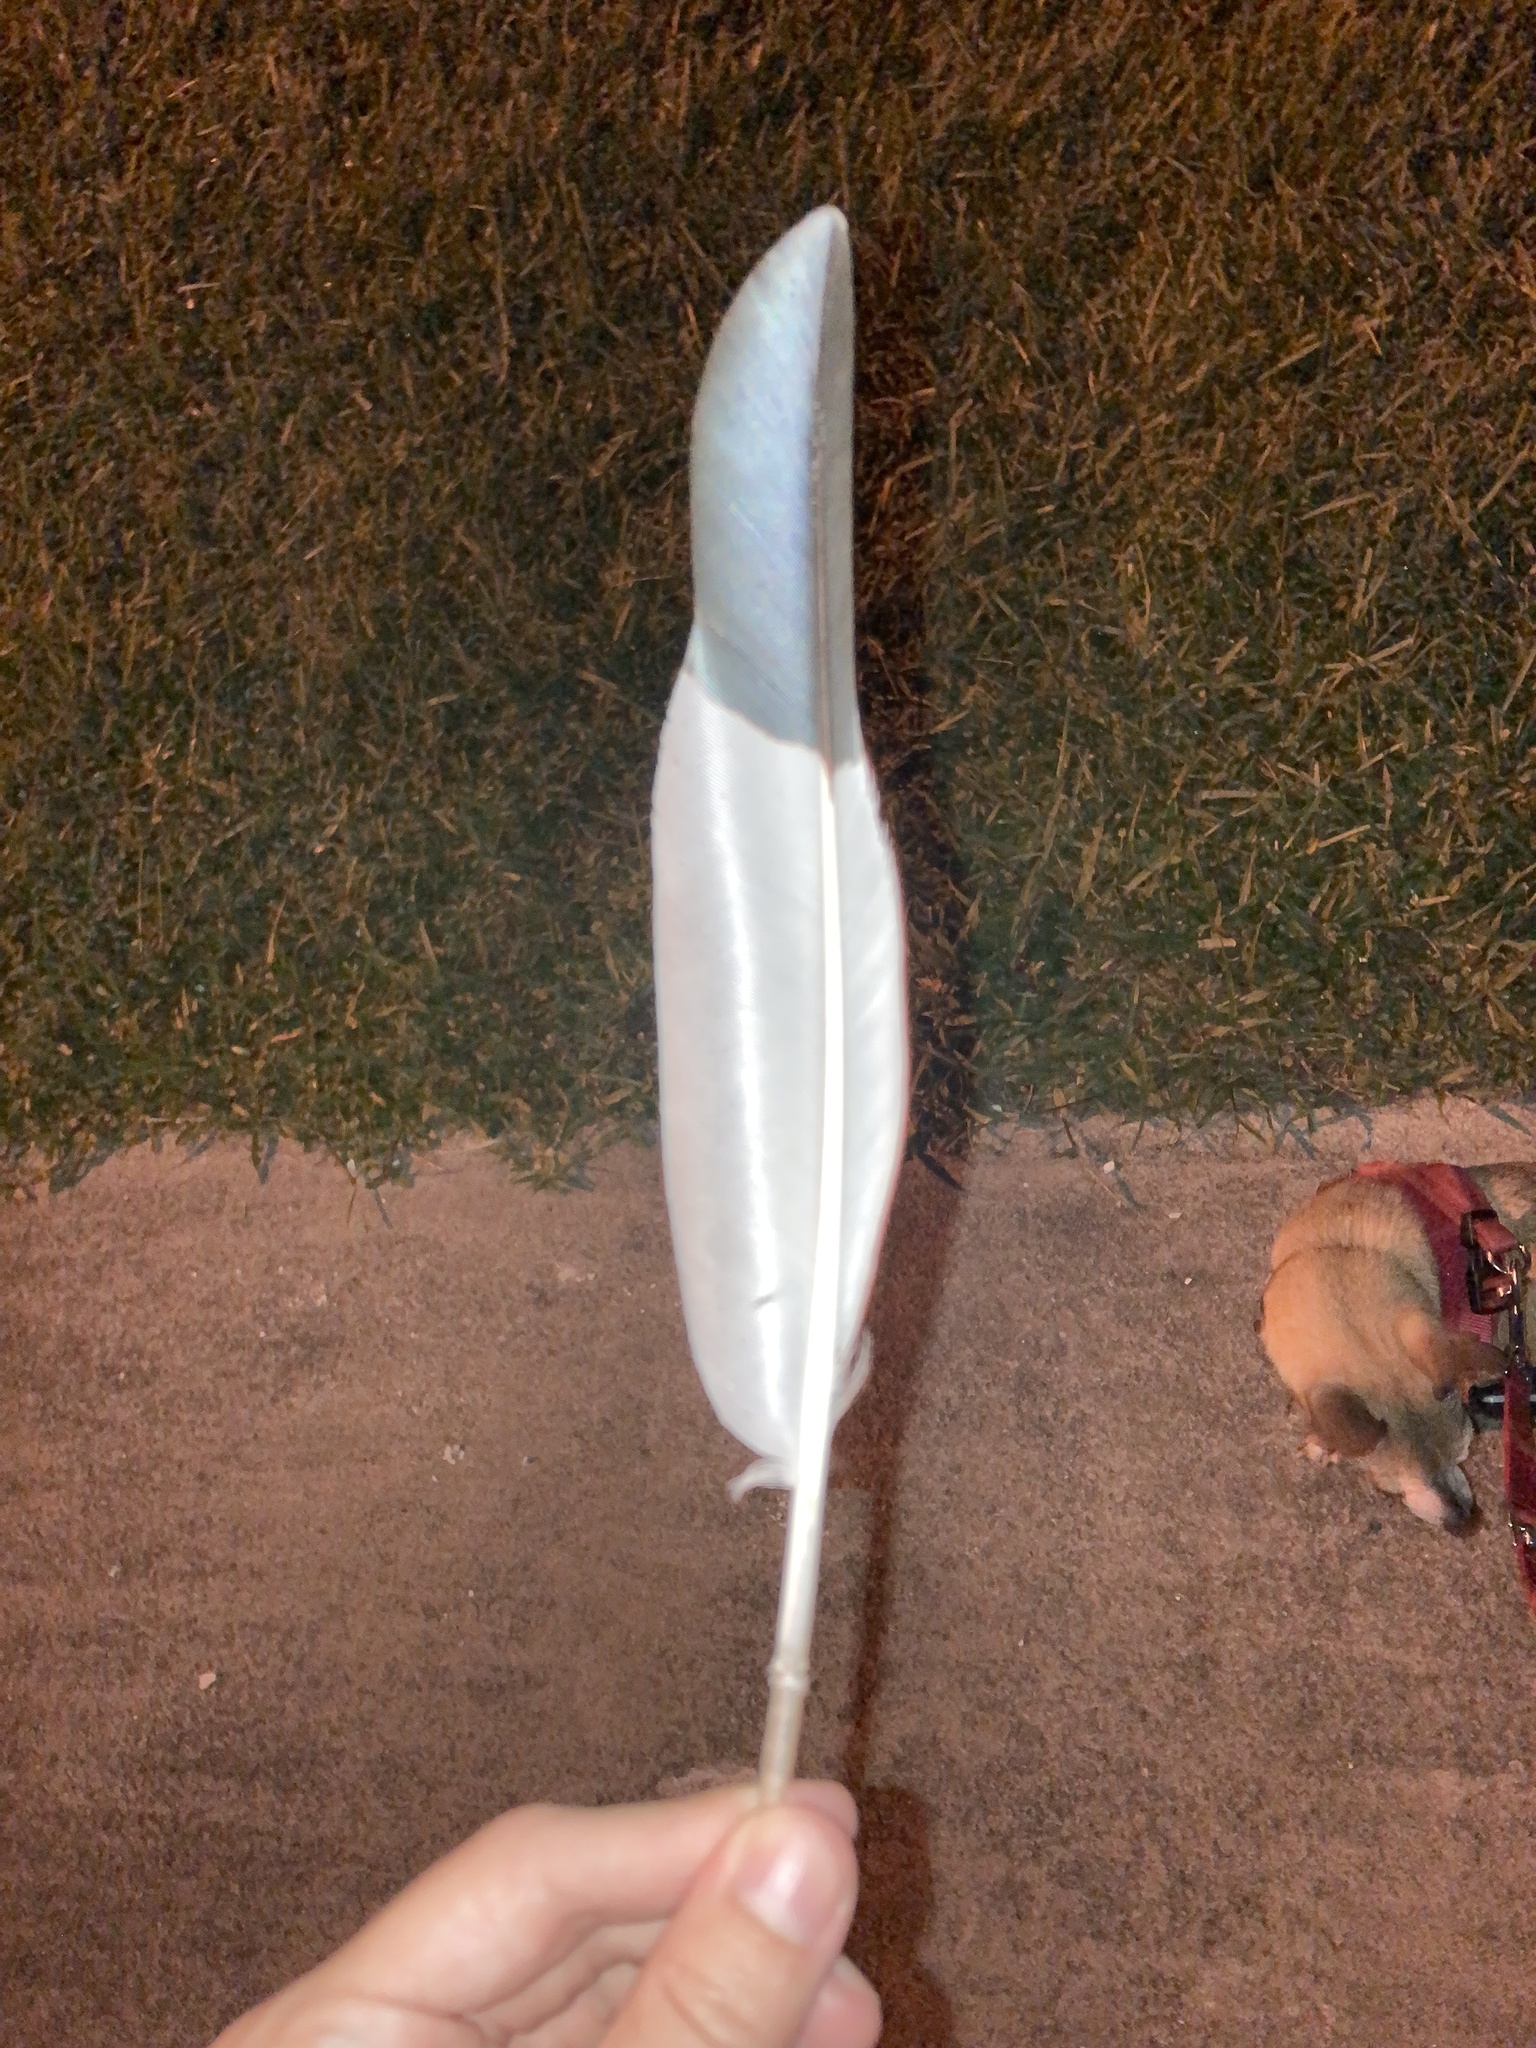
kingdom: Animalia
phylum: Chordata
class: Aves
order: Pelecaniformes
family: Threskiornithidae
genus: Eudocimus
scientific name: Eudocimus albus
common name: White ibis
